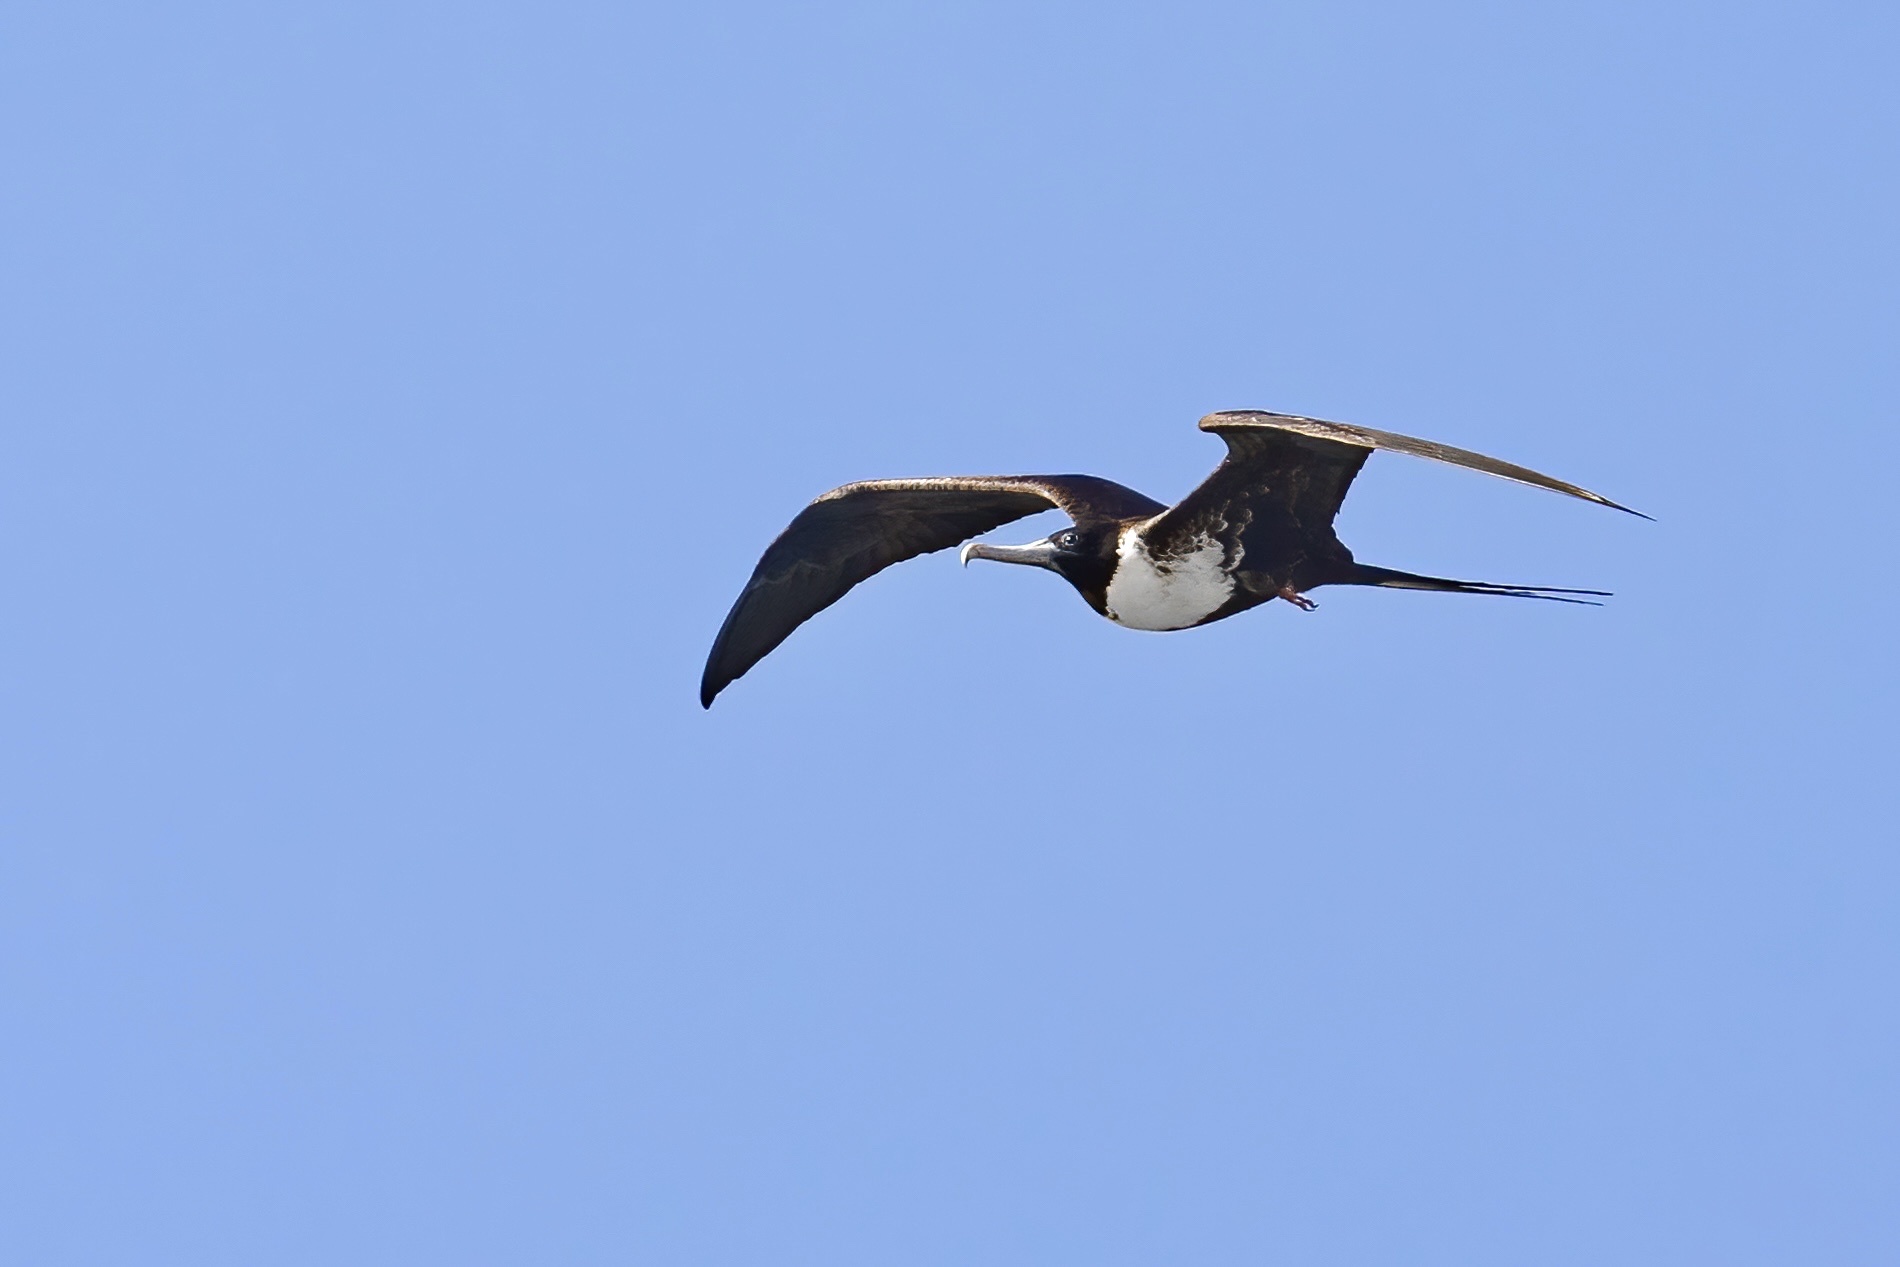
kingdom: Animalia
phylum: Chordata
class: Aves
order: Suliformes
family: Fregatidae
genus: Fregata
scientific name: Fregata magnificens
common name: Magnificent frigatebird
